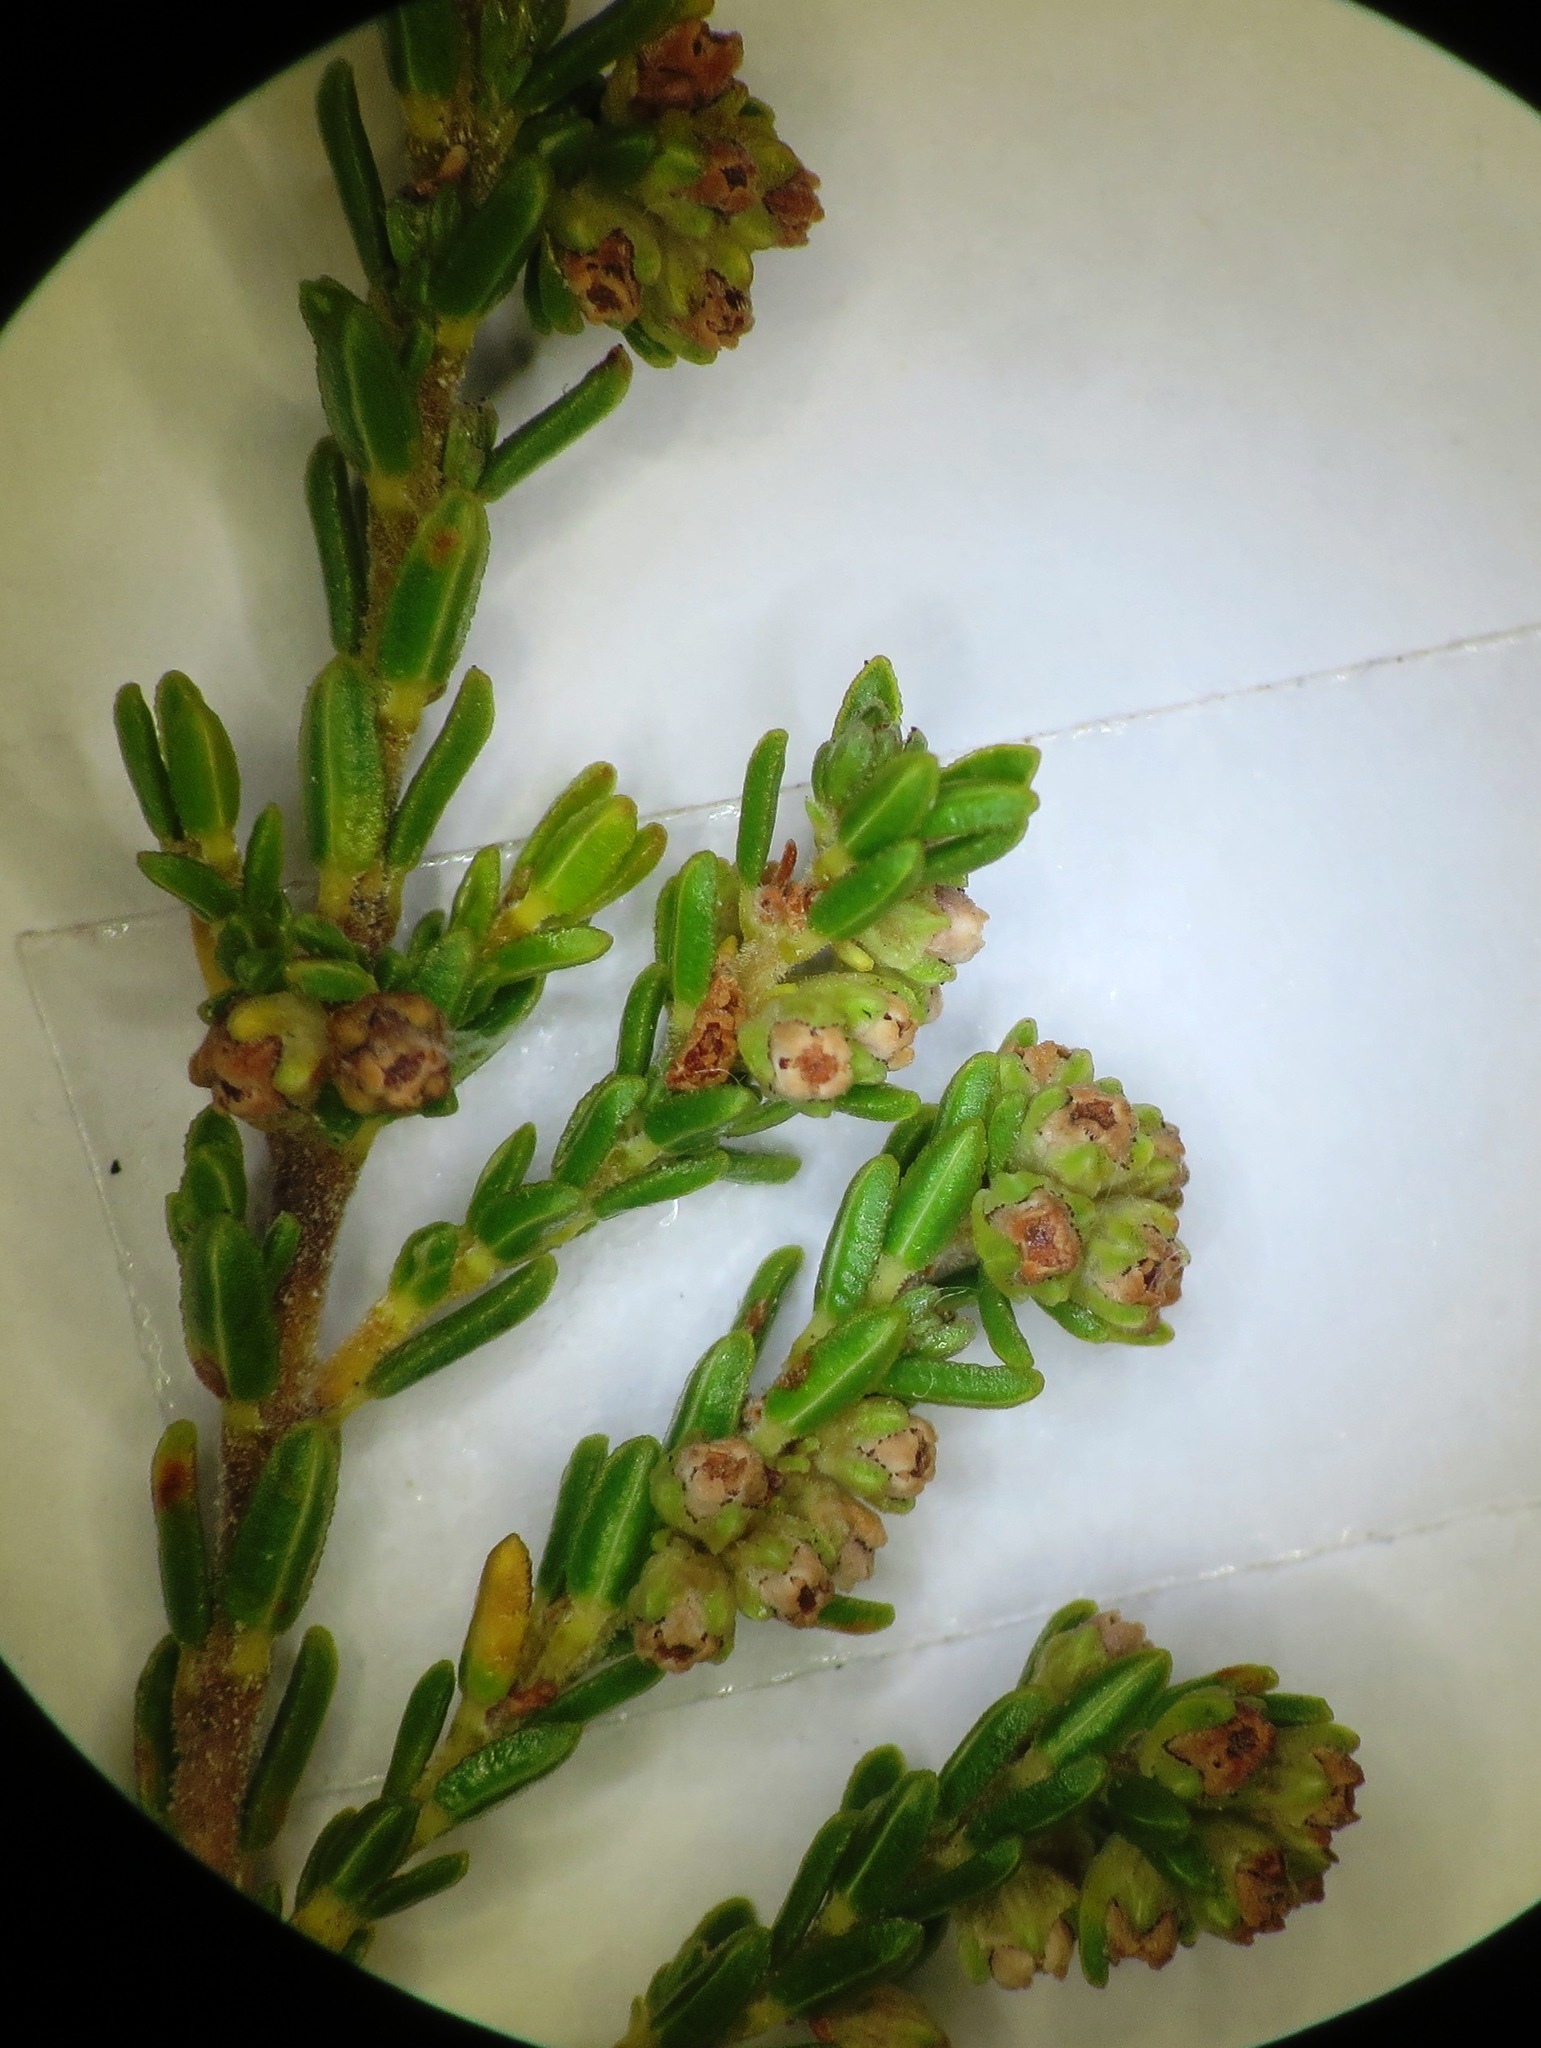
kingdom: Plantae
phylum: Tracheophyta
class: Magnoliopsida
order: Ericales
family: Ericaceae
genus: Erica
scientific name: Erica serrata
